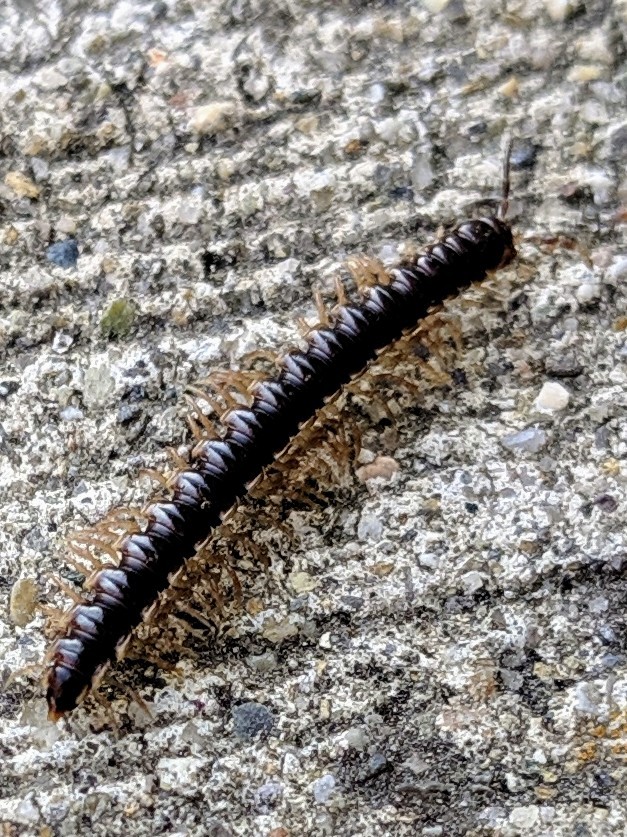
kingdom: Animalia
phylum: Arthropoda
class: Diplopoda
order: Polydesmida
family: Paradoxosomatidae
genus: Oxidus
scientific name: Oxidus gracilis
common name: Greenhouse millipede
